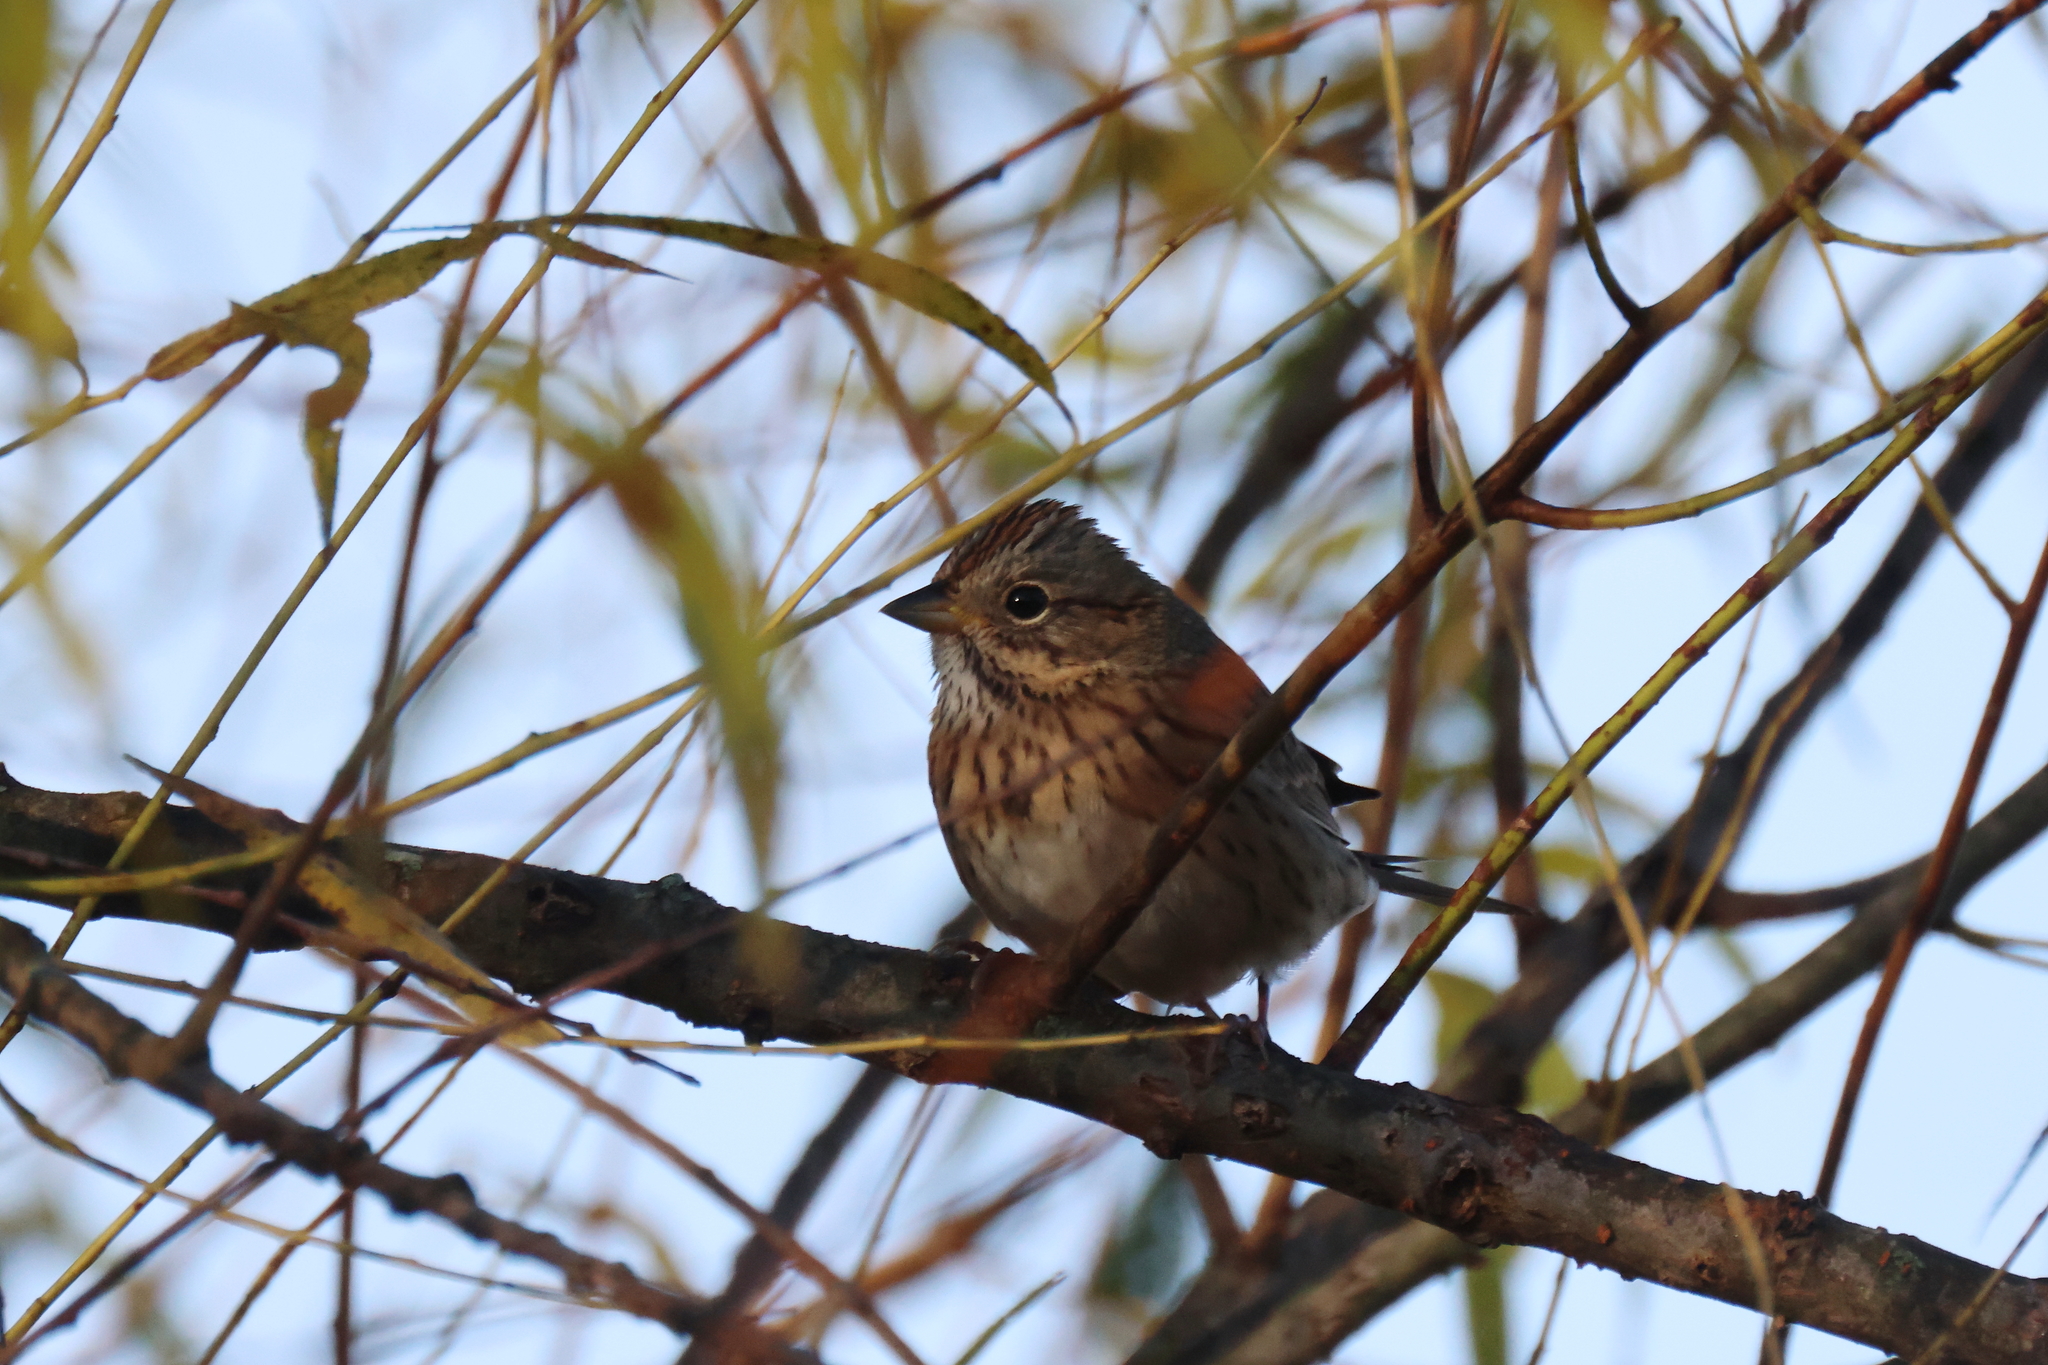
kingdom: Animalia
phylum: Chordata
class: Aves
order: Passeriformes
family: Passerellidae
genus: Melospiza
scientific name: Melospiza lincolnii
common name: Lincoln's sparrow
